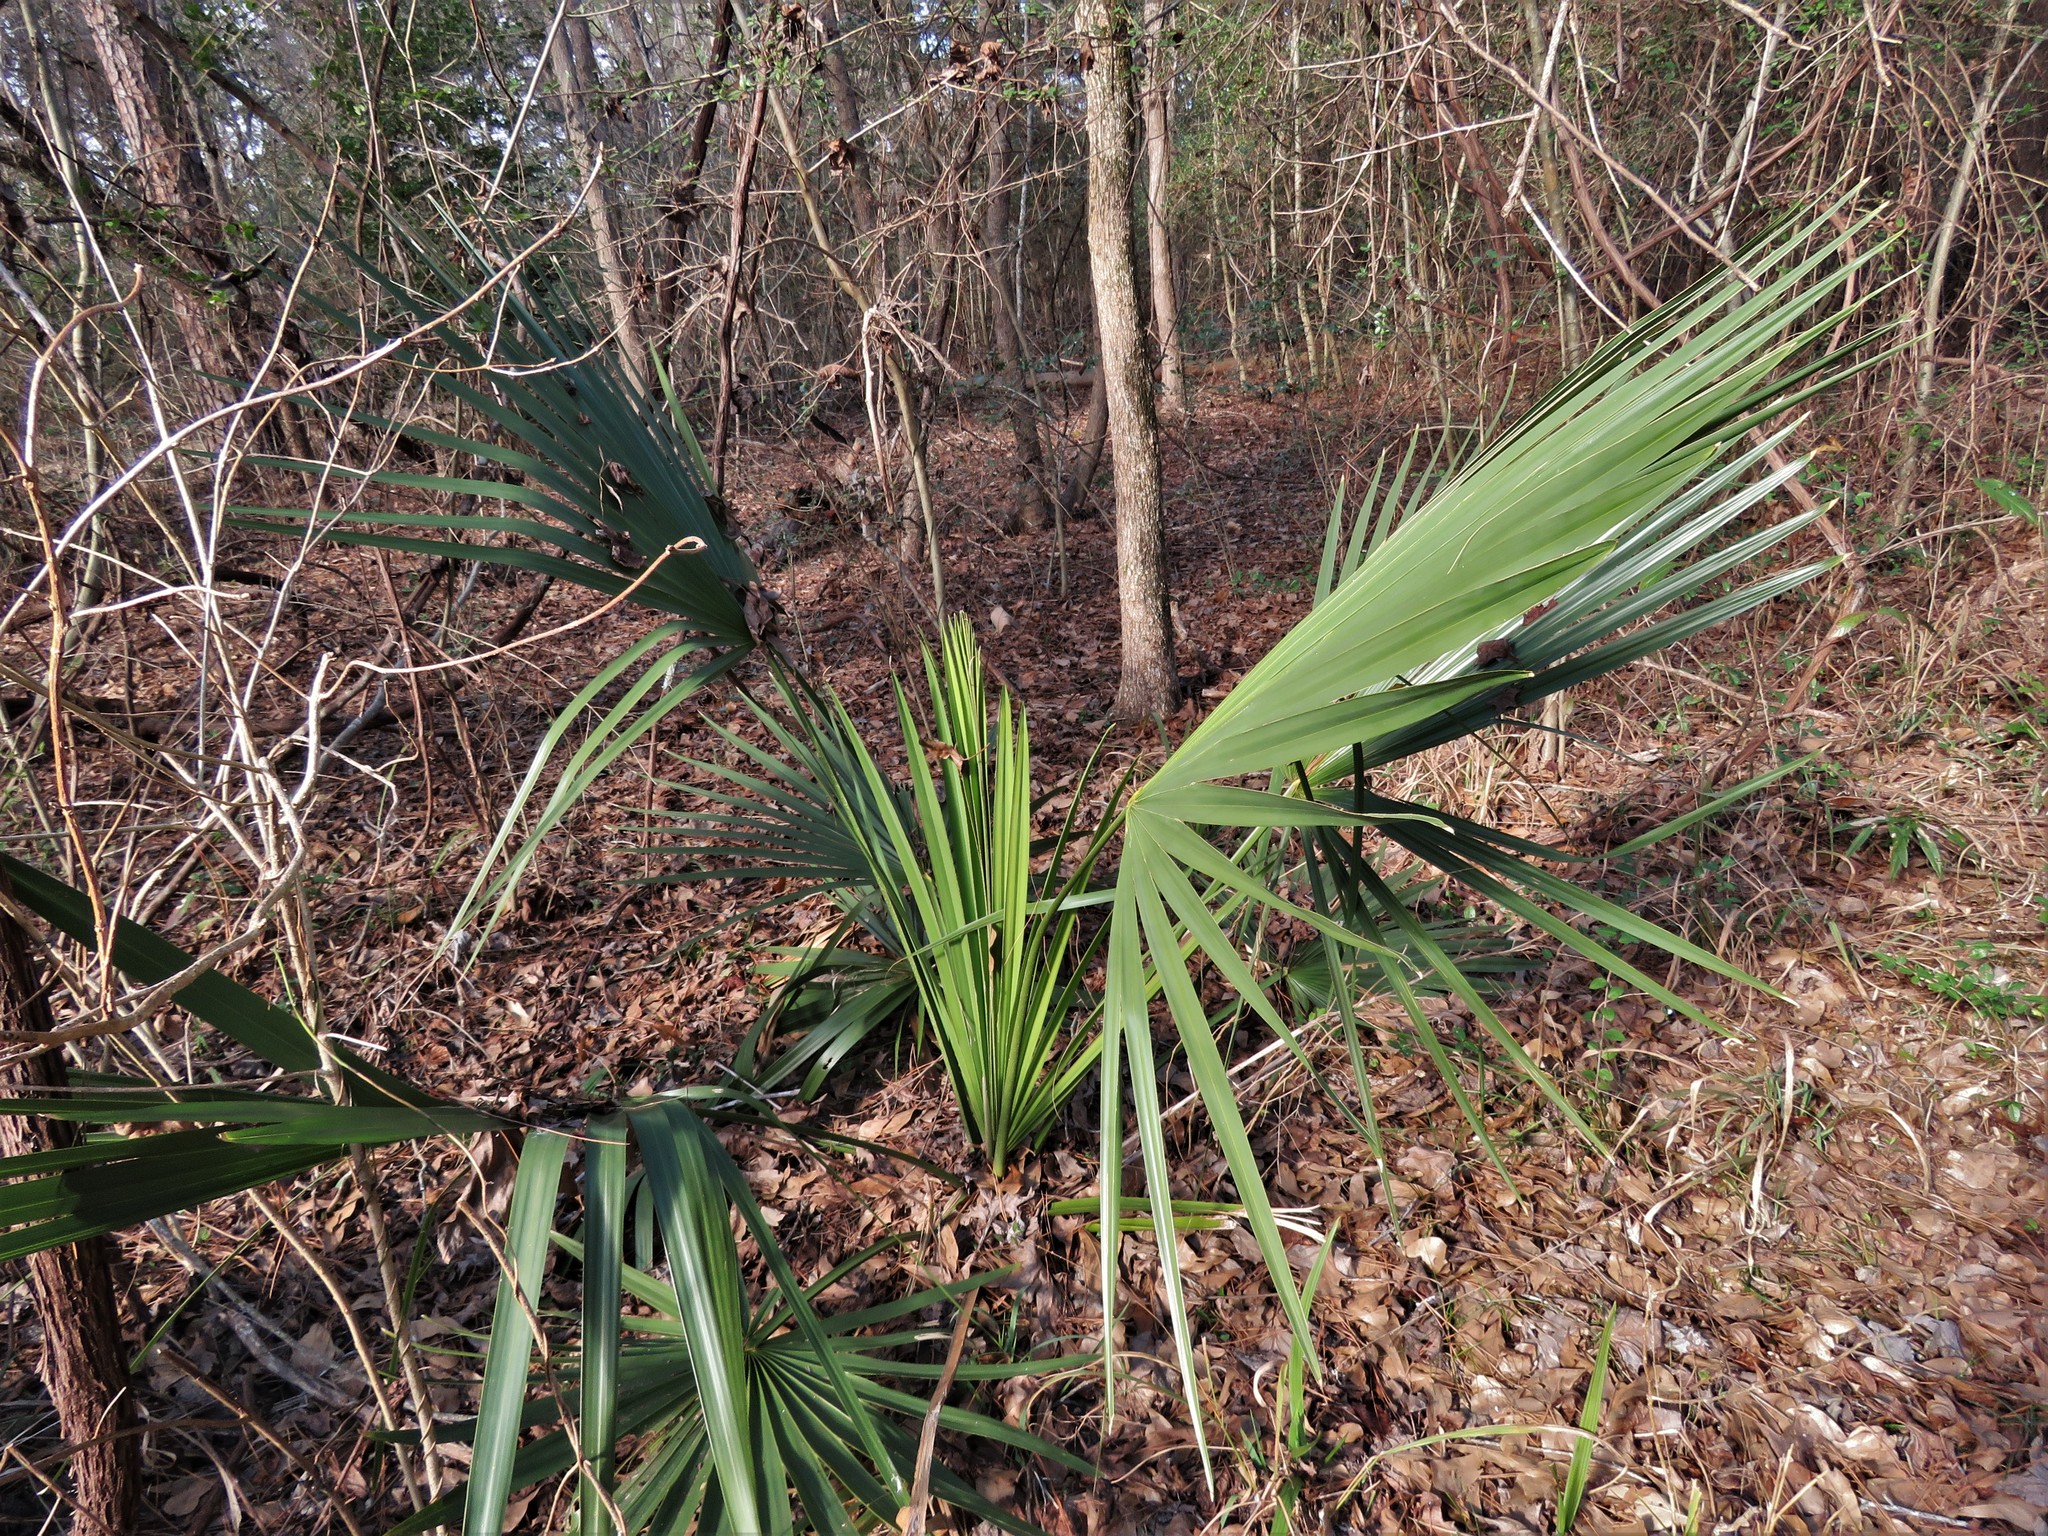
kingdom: Plantae
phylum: Tracheophyta
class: Liliopsida
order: Arecales
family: Arecaceae
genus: Sabal
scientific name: Sabal minor
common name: Dwarf palmetto
